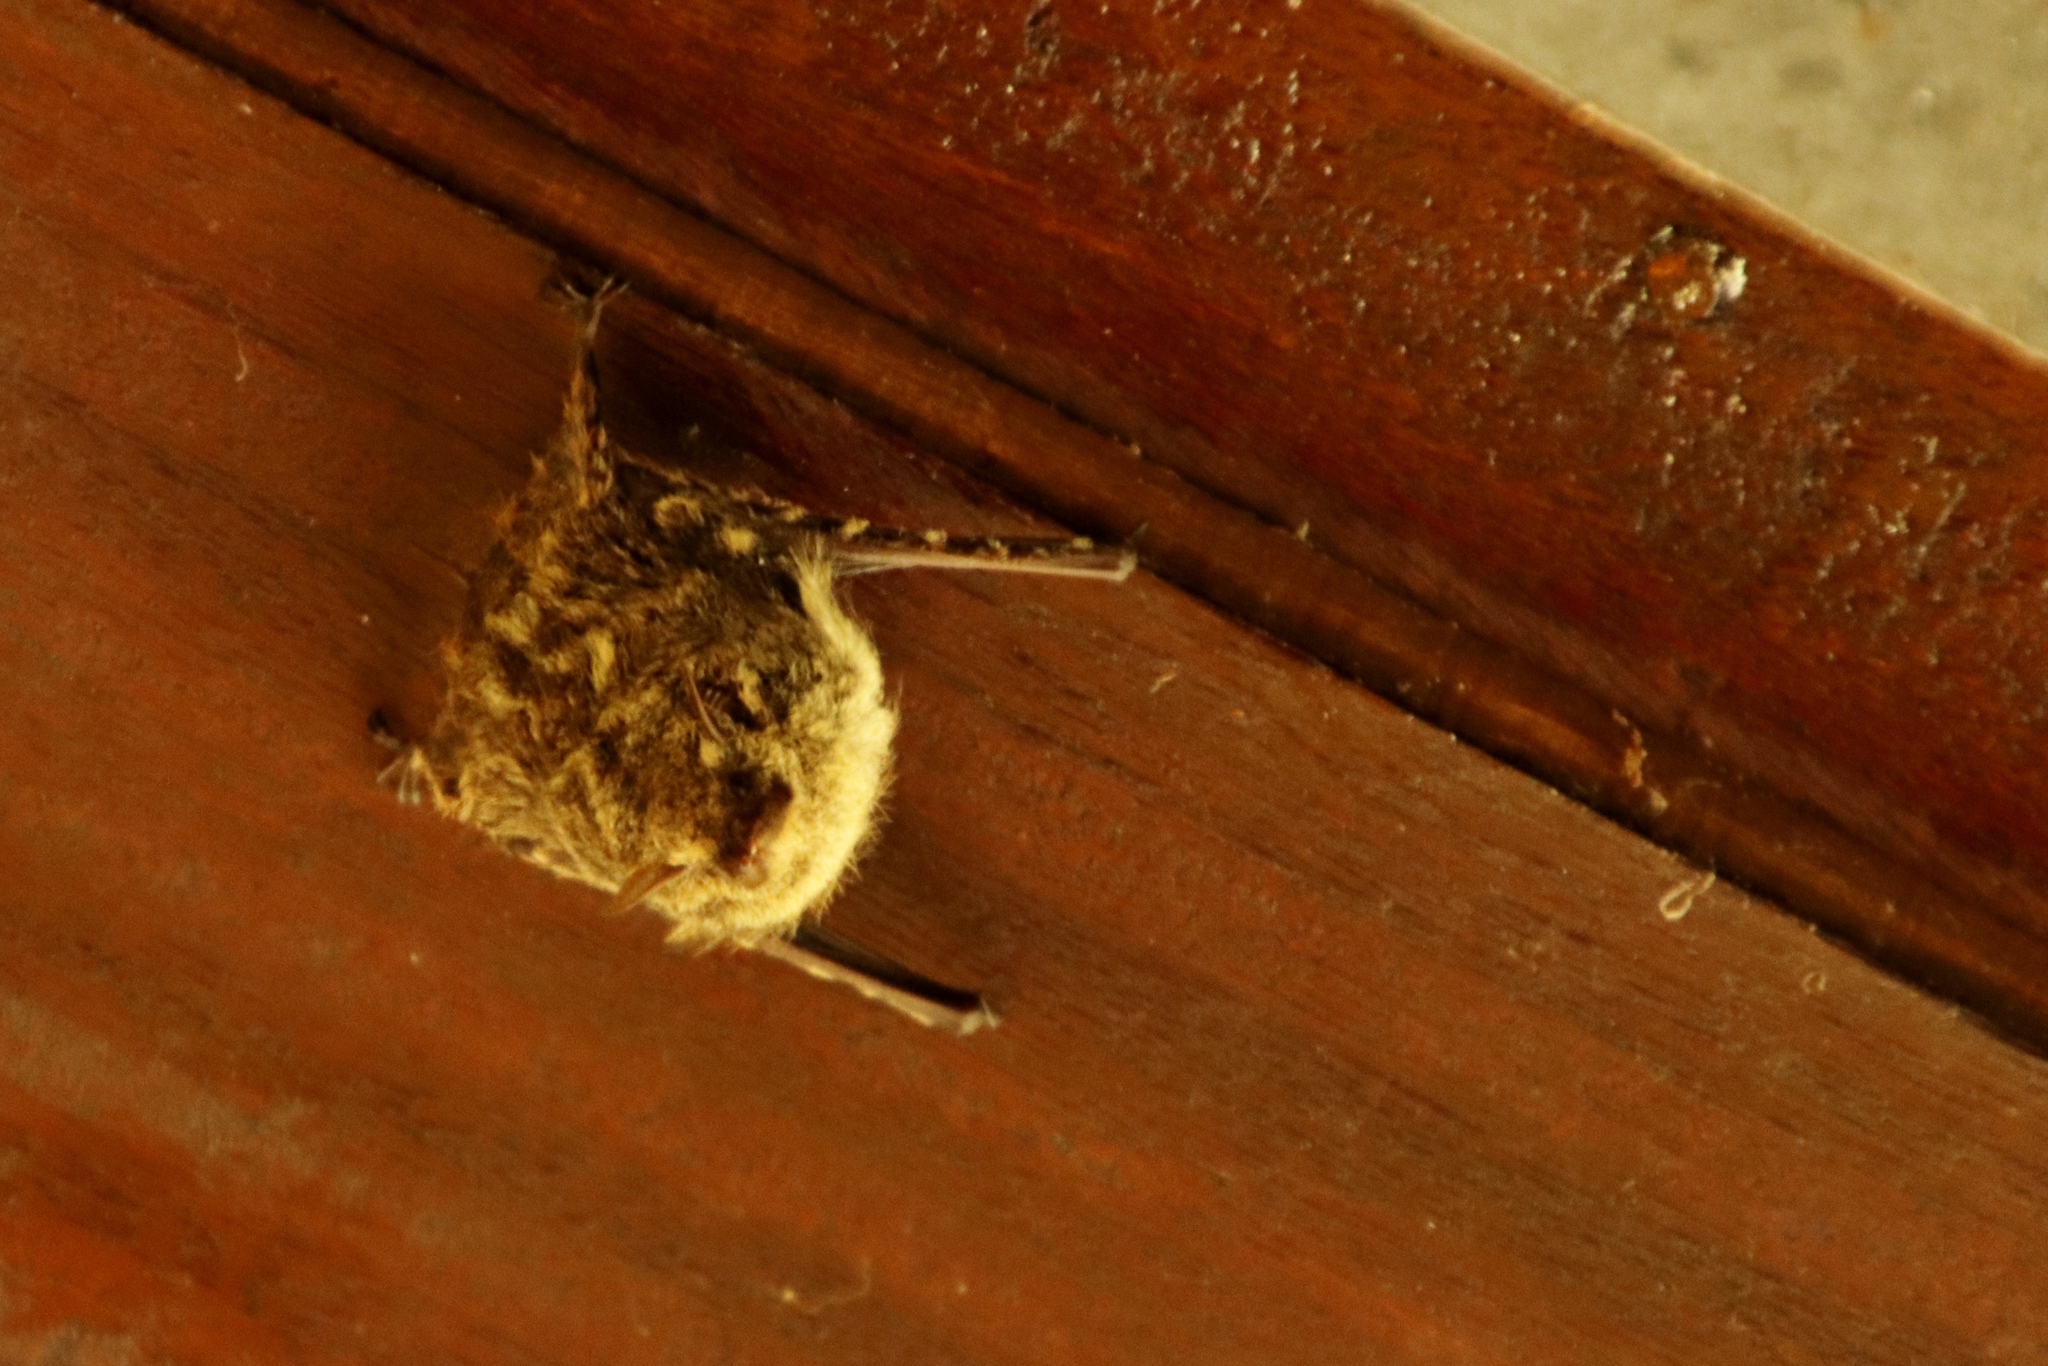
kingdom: Animalia
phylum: Chordata
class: Mammalia
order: Chiroptera
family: Emballonuridae
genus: Rhynchonycteris
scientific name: Rhynchonycteris naso
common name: Proboscis bat
